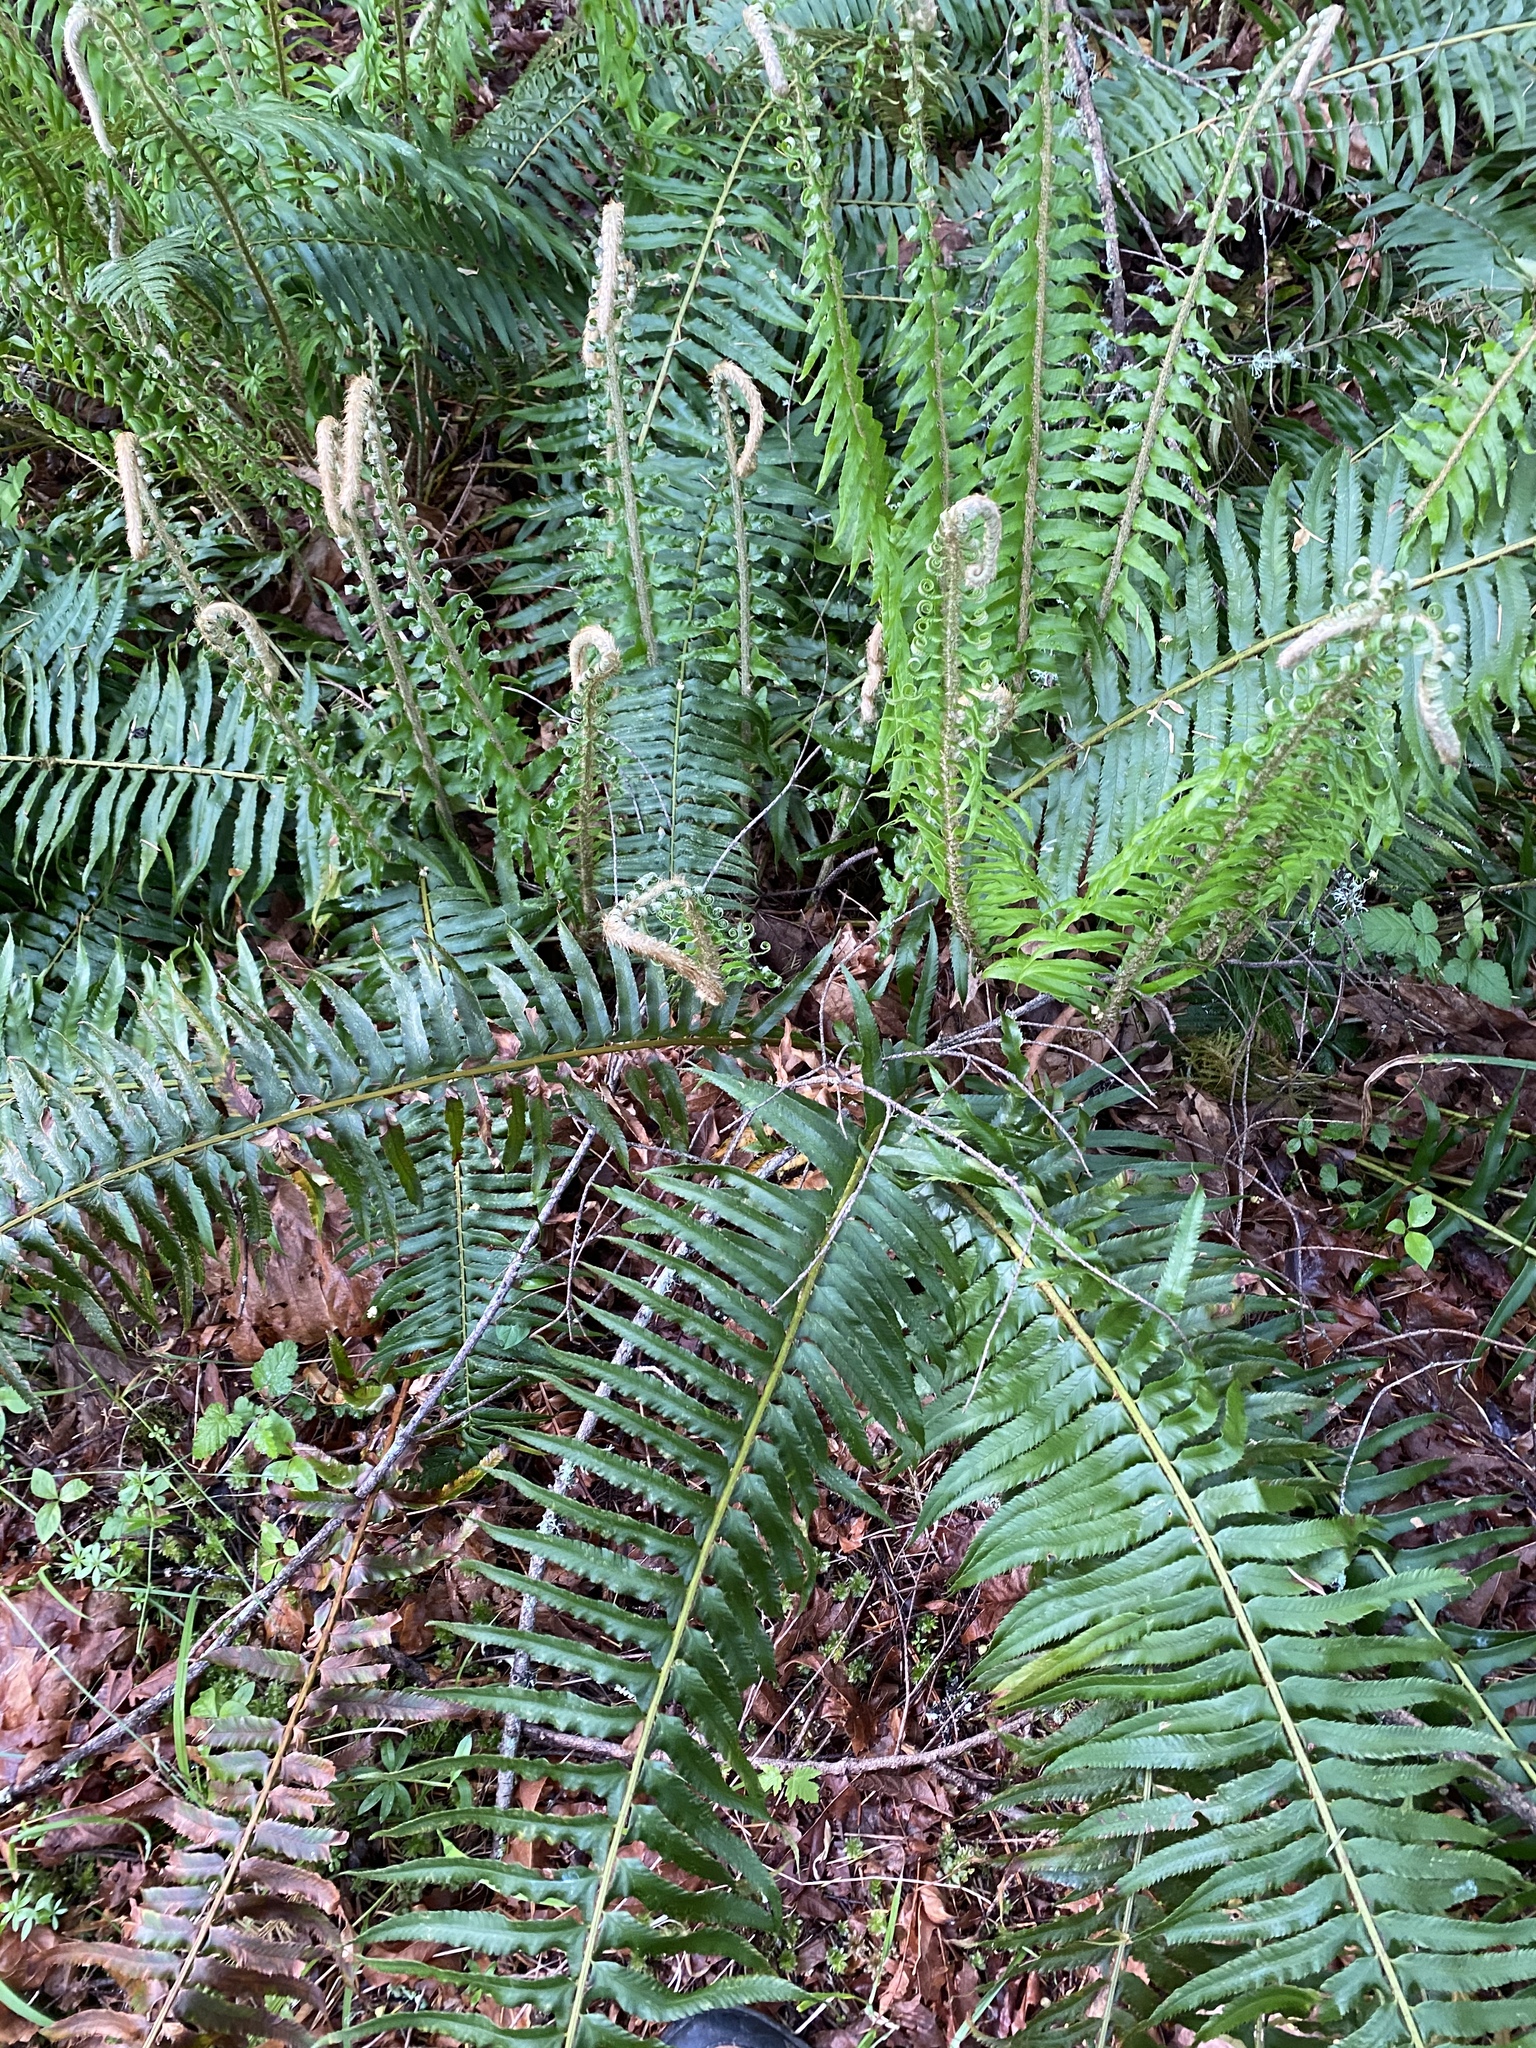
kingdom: Plantae
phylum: Tracheophyta
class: Polypodiopsida
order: Polypodiales
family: Dryopteridaceae
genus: Polystichum
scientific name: Polystichum munitum
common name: Western sword-fern
